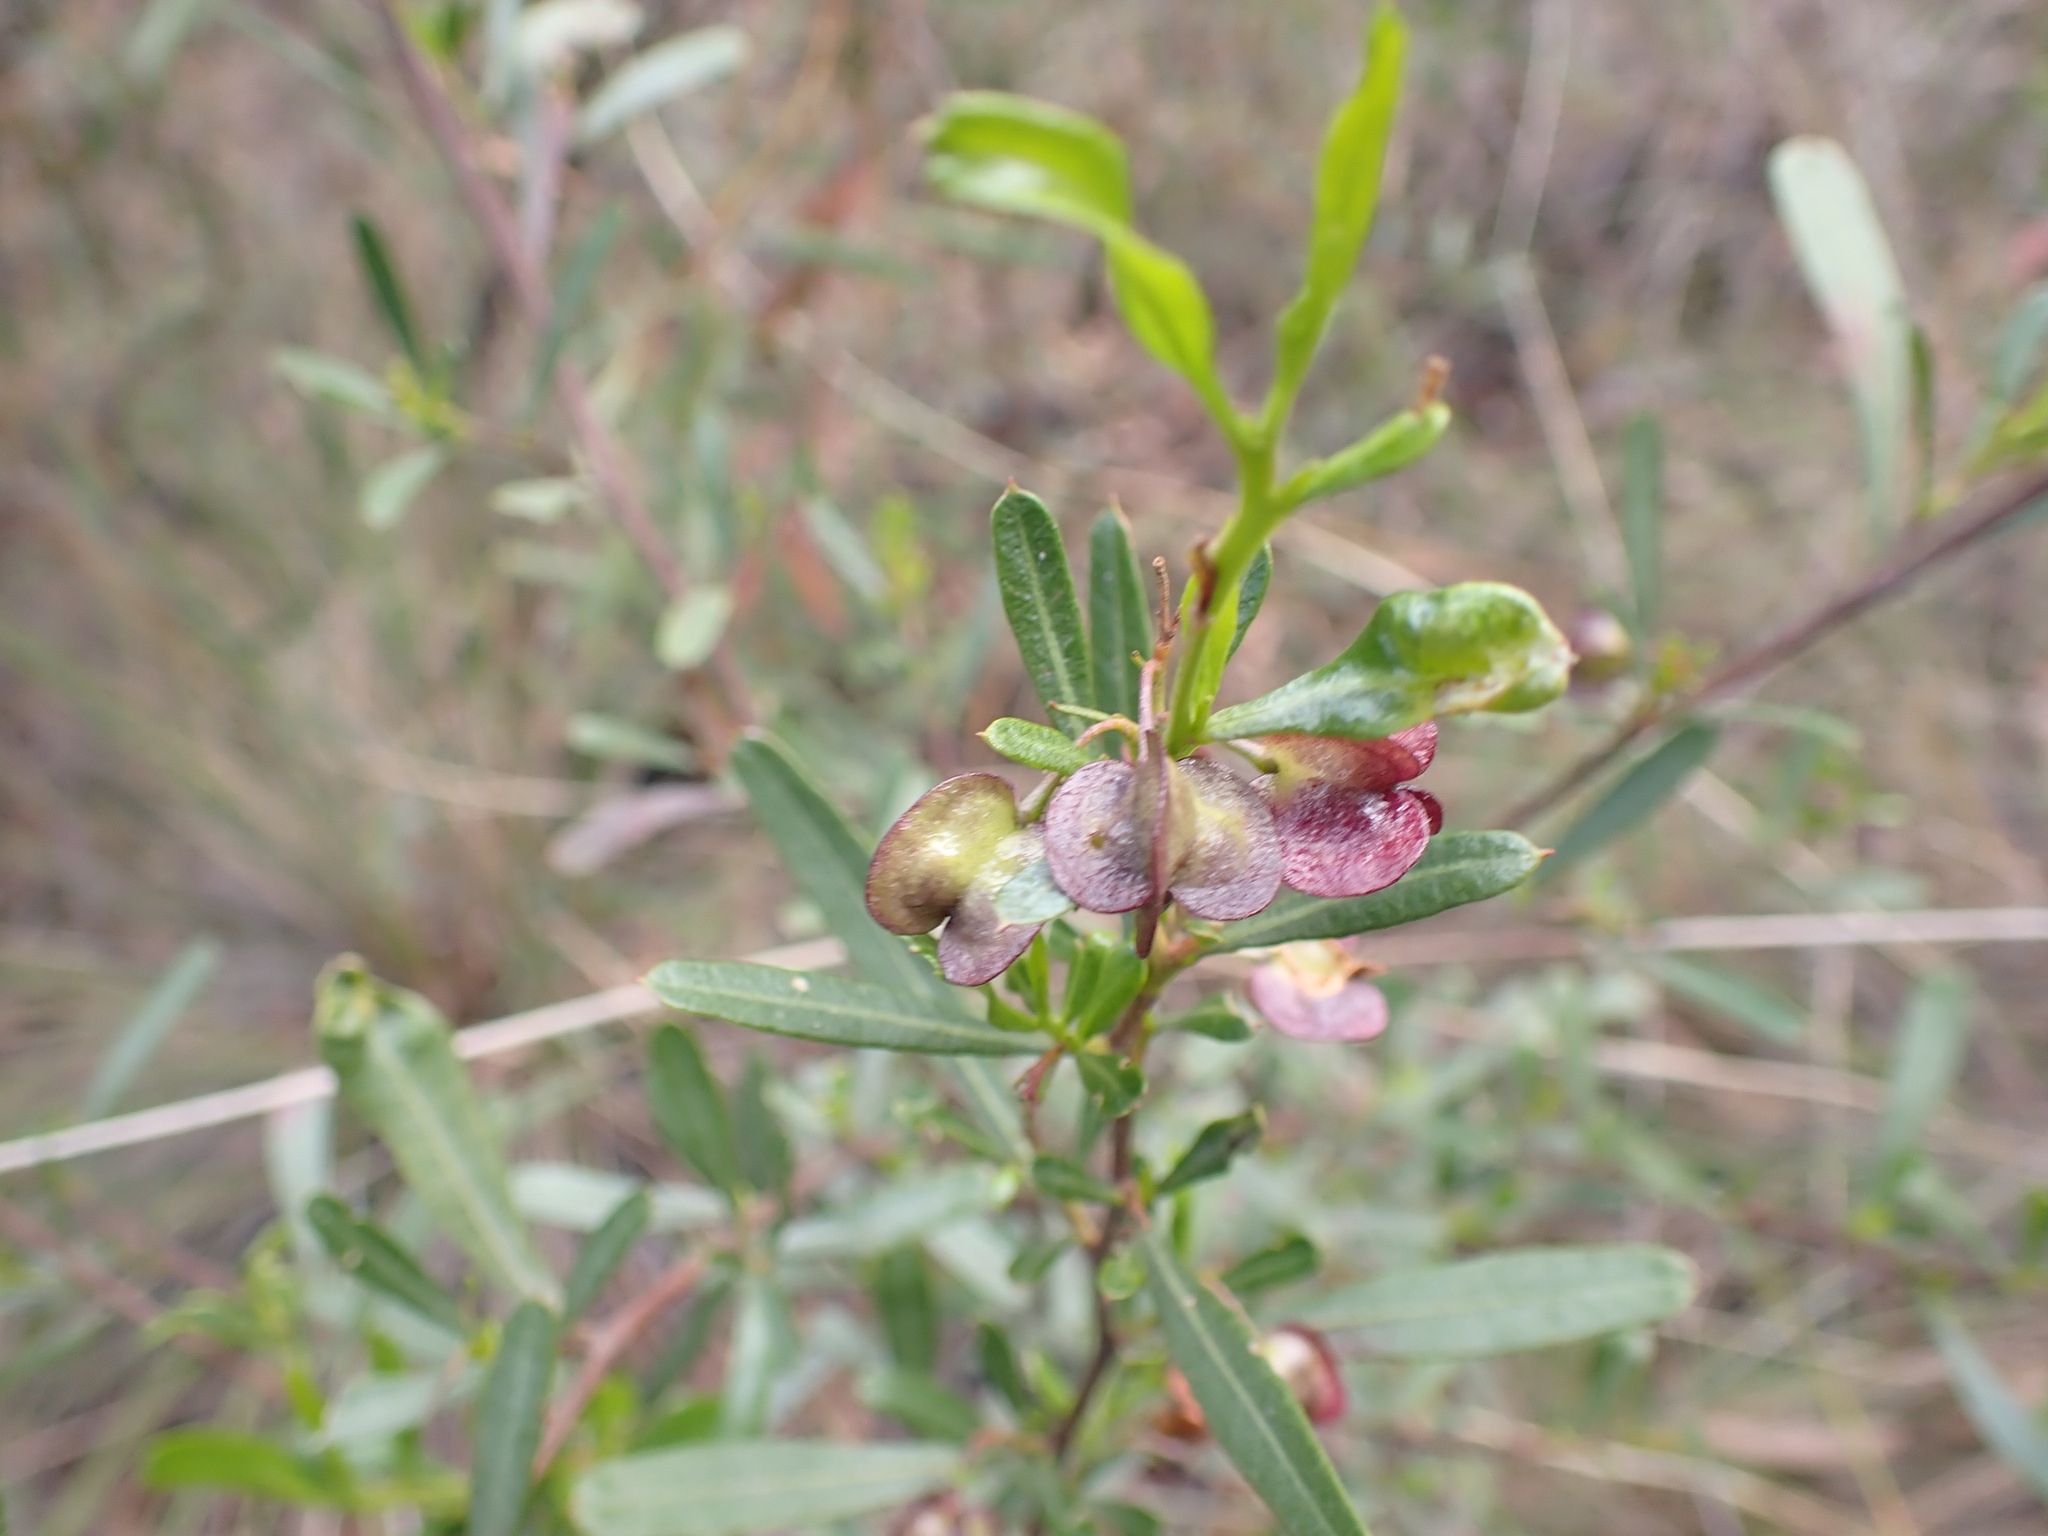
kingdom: Plantae
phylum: Tracheophyta
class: Magnoliopsida
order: Sapindales
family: Sapindaceae
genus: Dodonaea
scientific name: Dodonaea viscosa
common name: Hopbush
